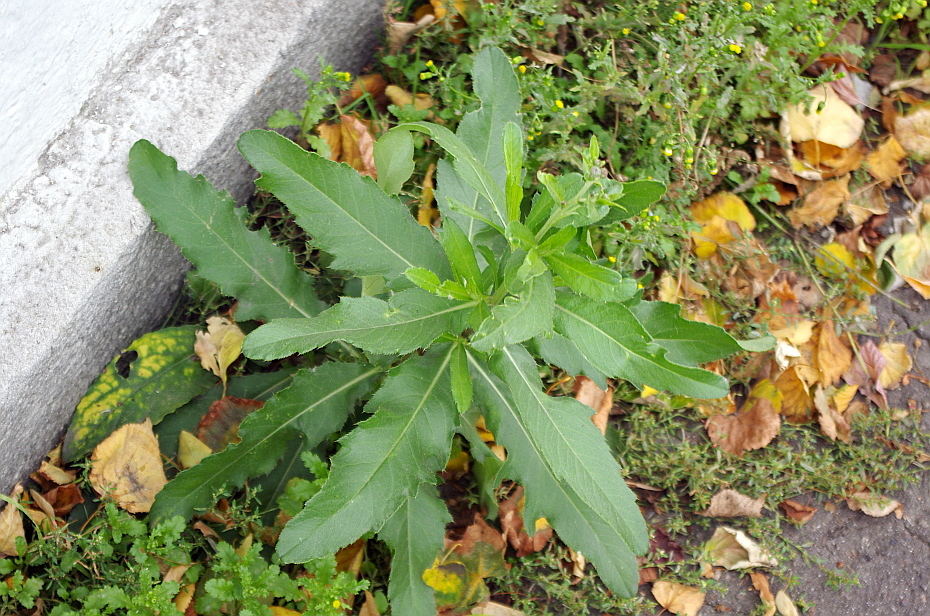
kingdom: Plantae
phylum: Tracheophyta
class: Magnoliopsida
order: Asterales
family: Asteraceae
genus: Cirsium
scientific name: Cirsium arvense
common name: Creeping thistle
